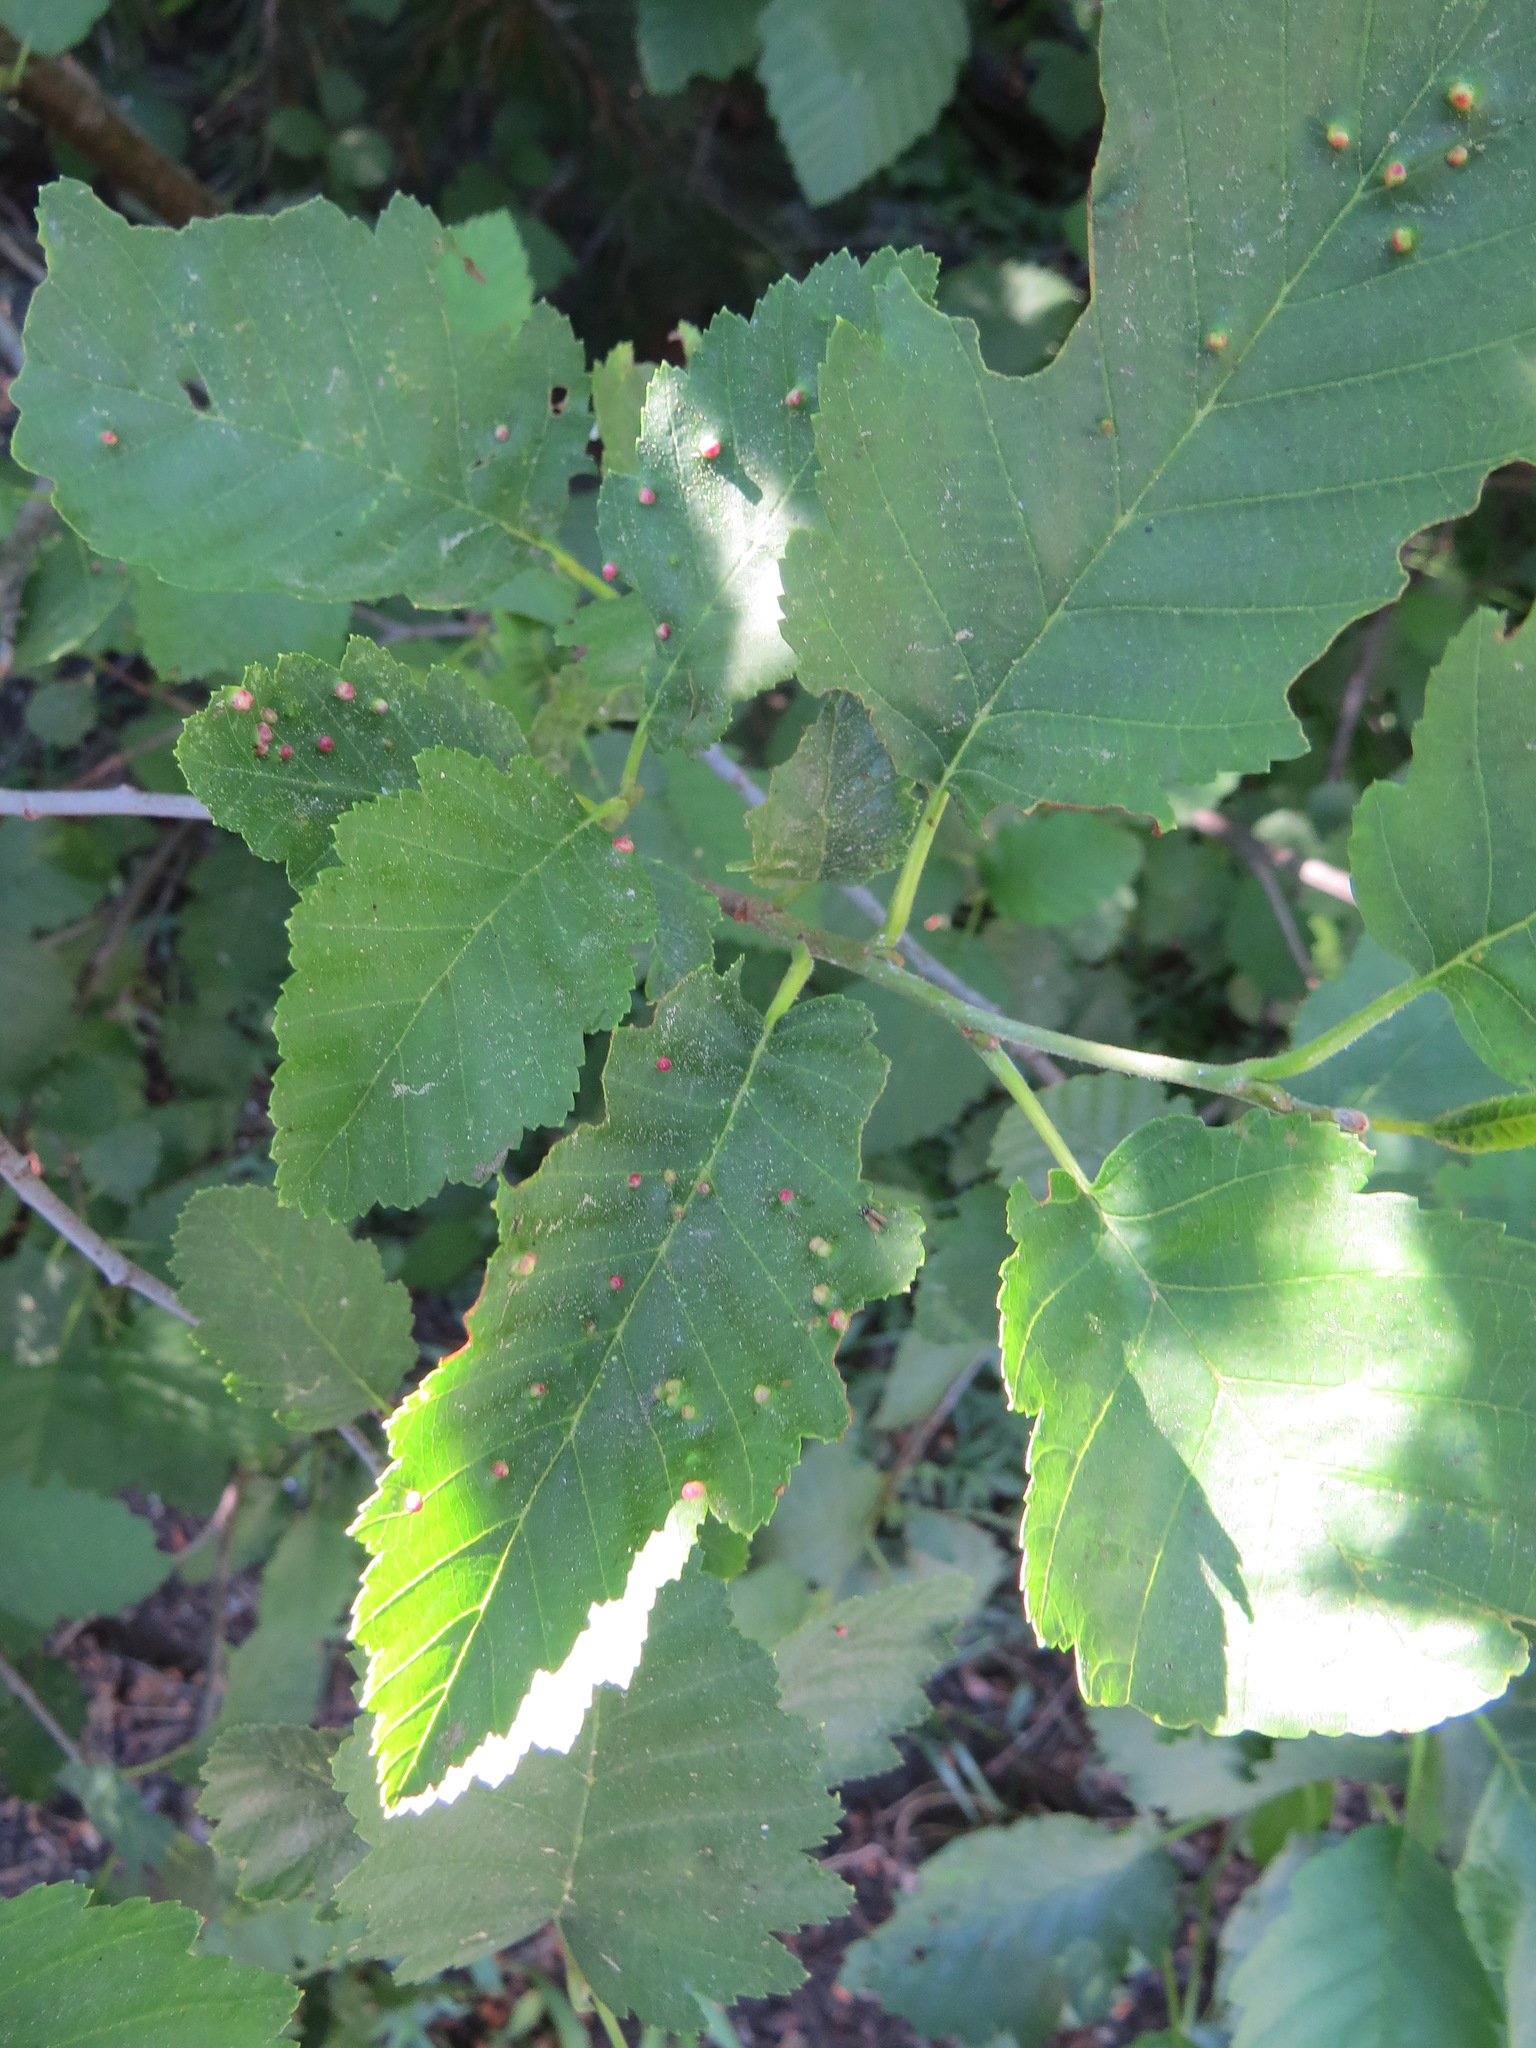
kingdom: Animalia
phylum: Arthropoda
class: Arachnida
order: Trombidiformes
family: Eriophyidae
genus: Eriophyes
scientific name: Eriophyes laevis
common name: Alder leaf gall mite
